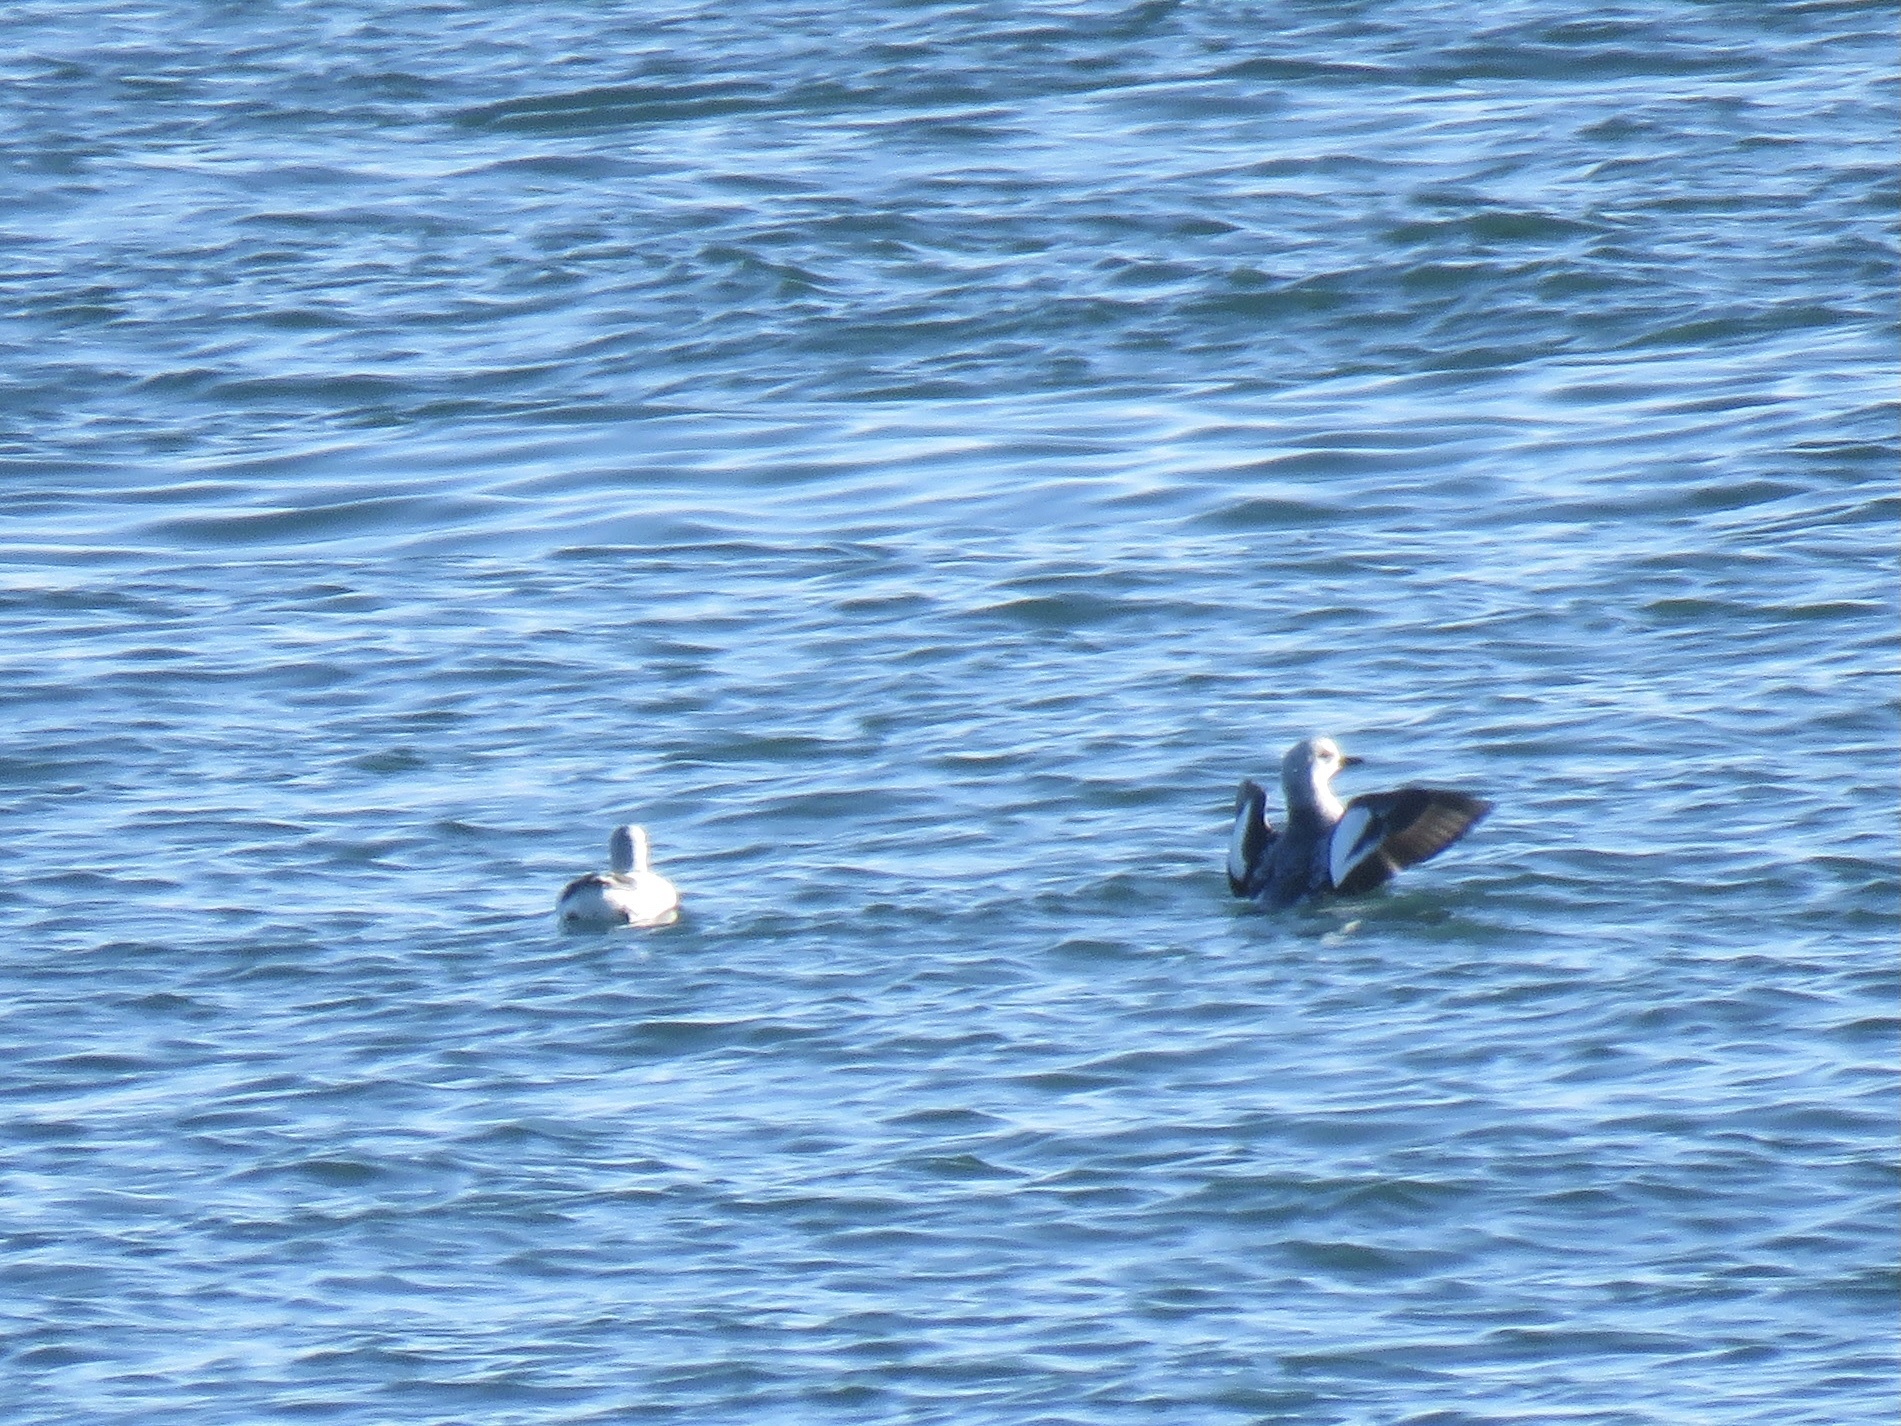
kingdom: Animalia
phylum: Chordata
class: Aves
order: Charadriiformes
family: Alcidae
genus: Cepphus
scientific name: Cepphus columba
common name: Pigeon guillemot
